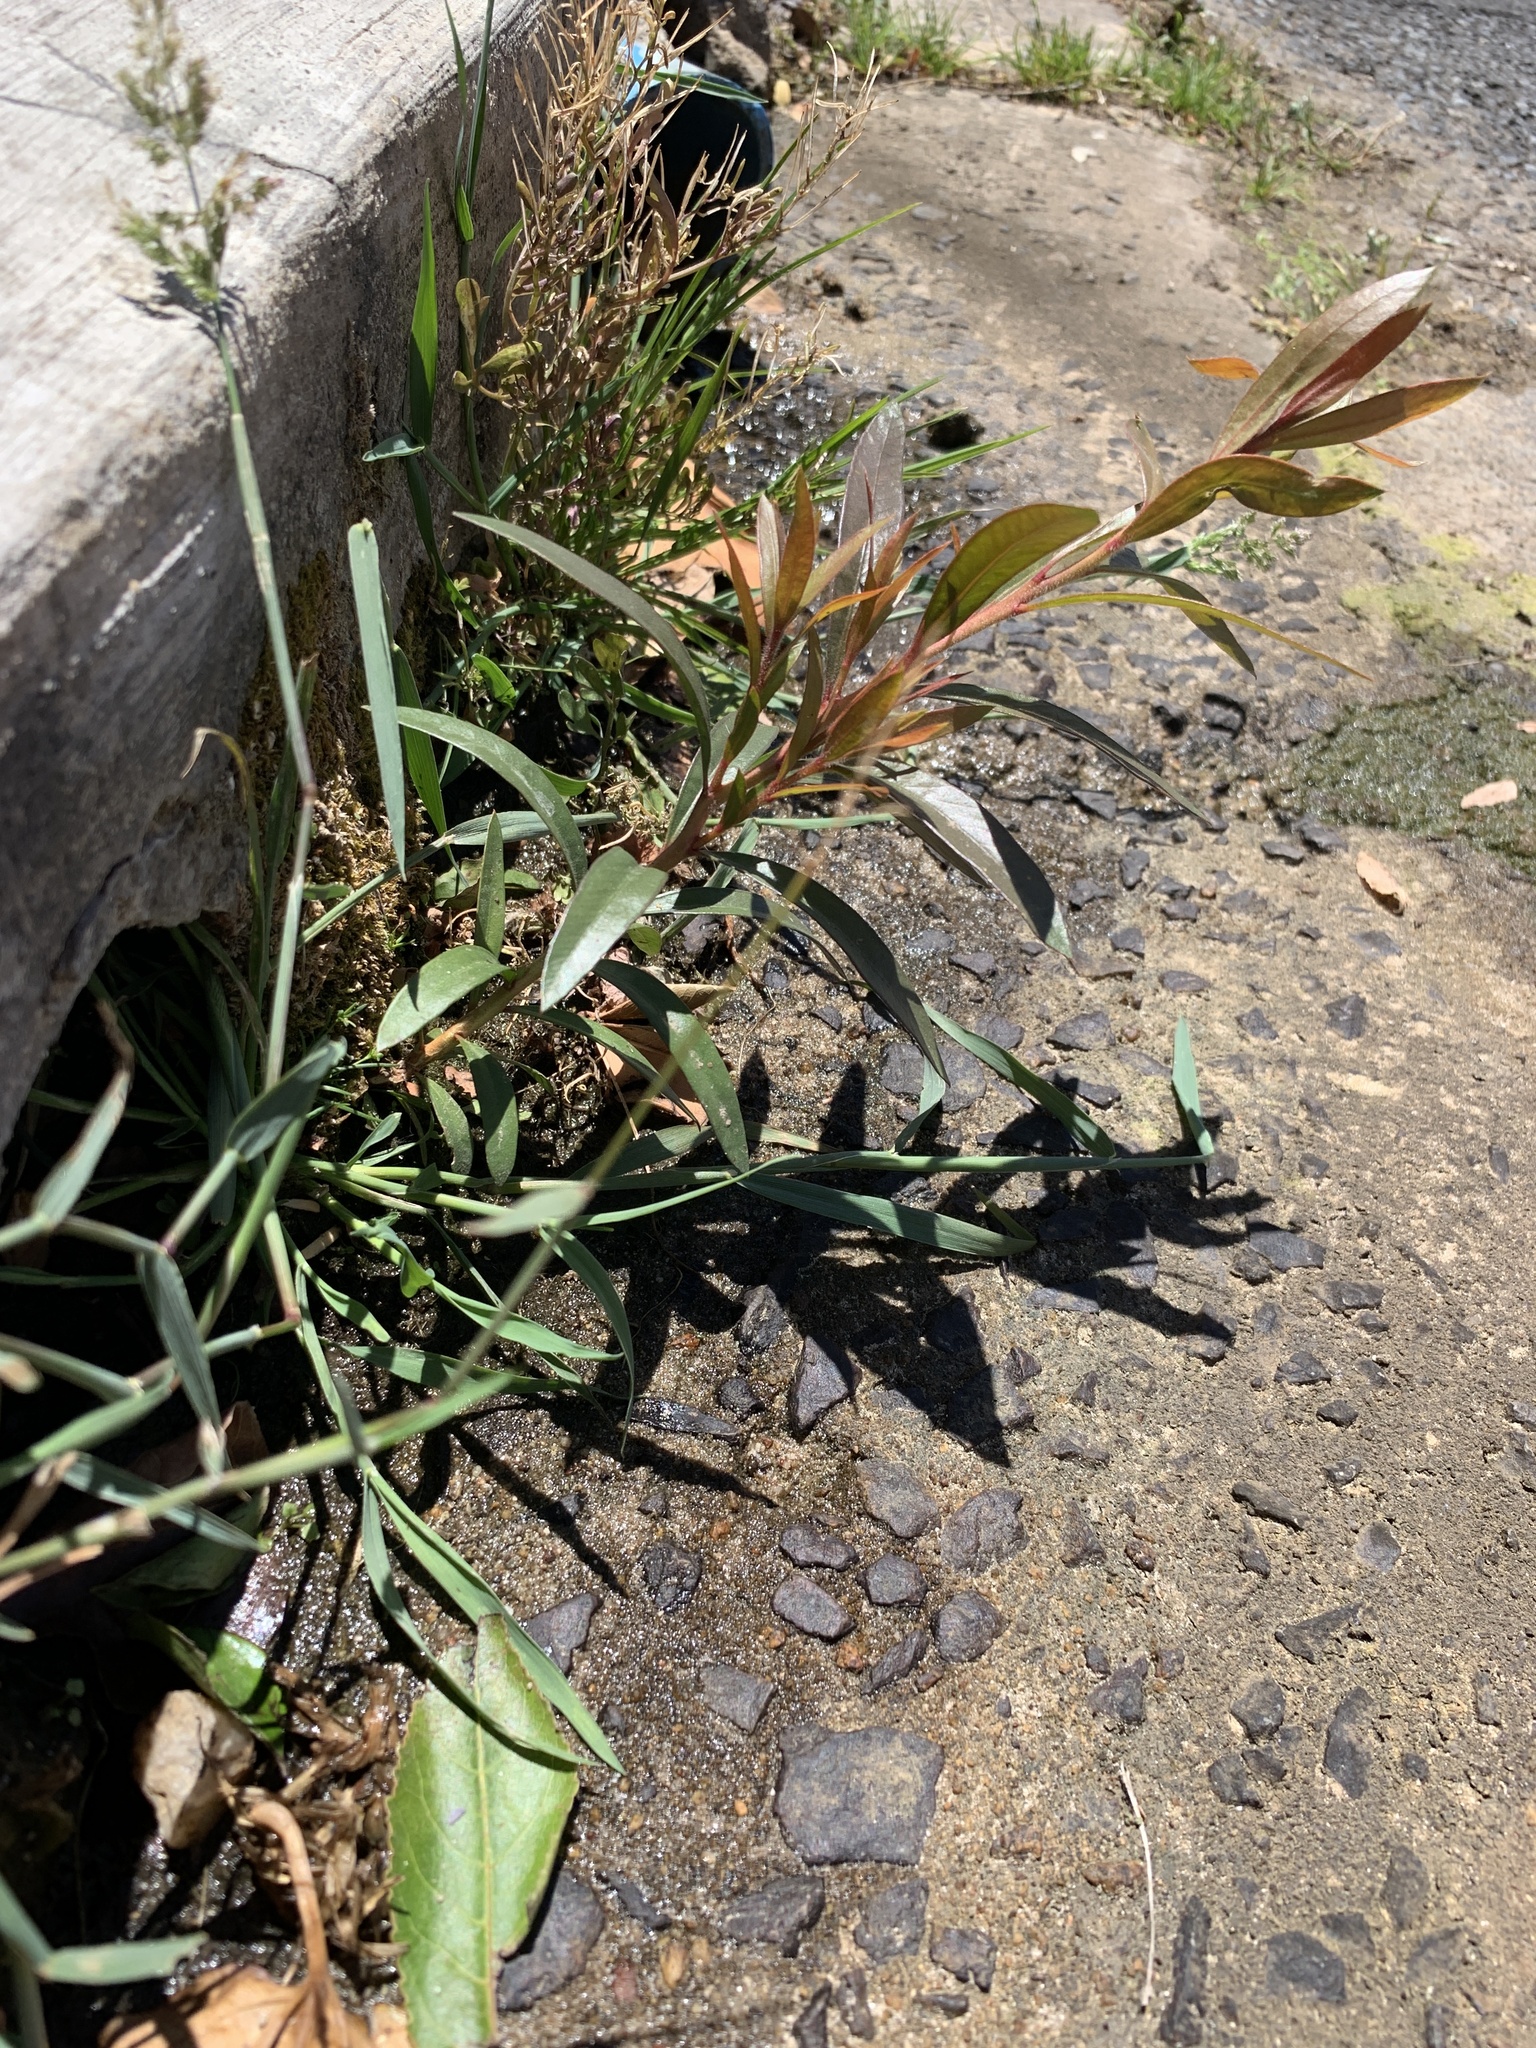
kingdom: Plantae
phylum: Tracheophyta
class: Magnoliopsida
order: Myrtales
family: Myrtaceae
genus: Callistemon
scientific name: Callistemon viminalis
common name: Drooping bottlebrush
